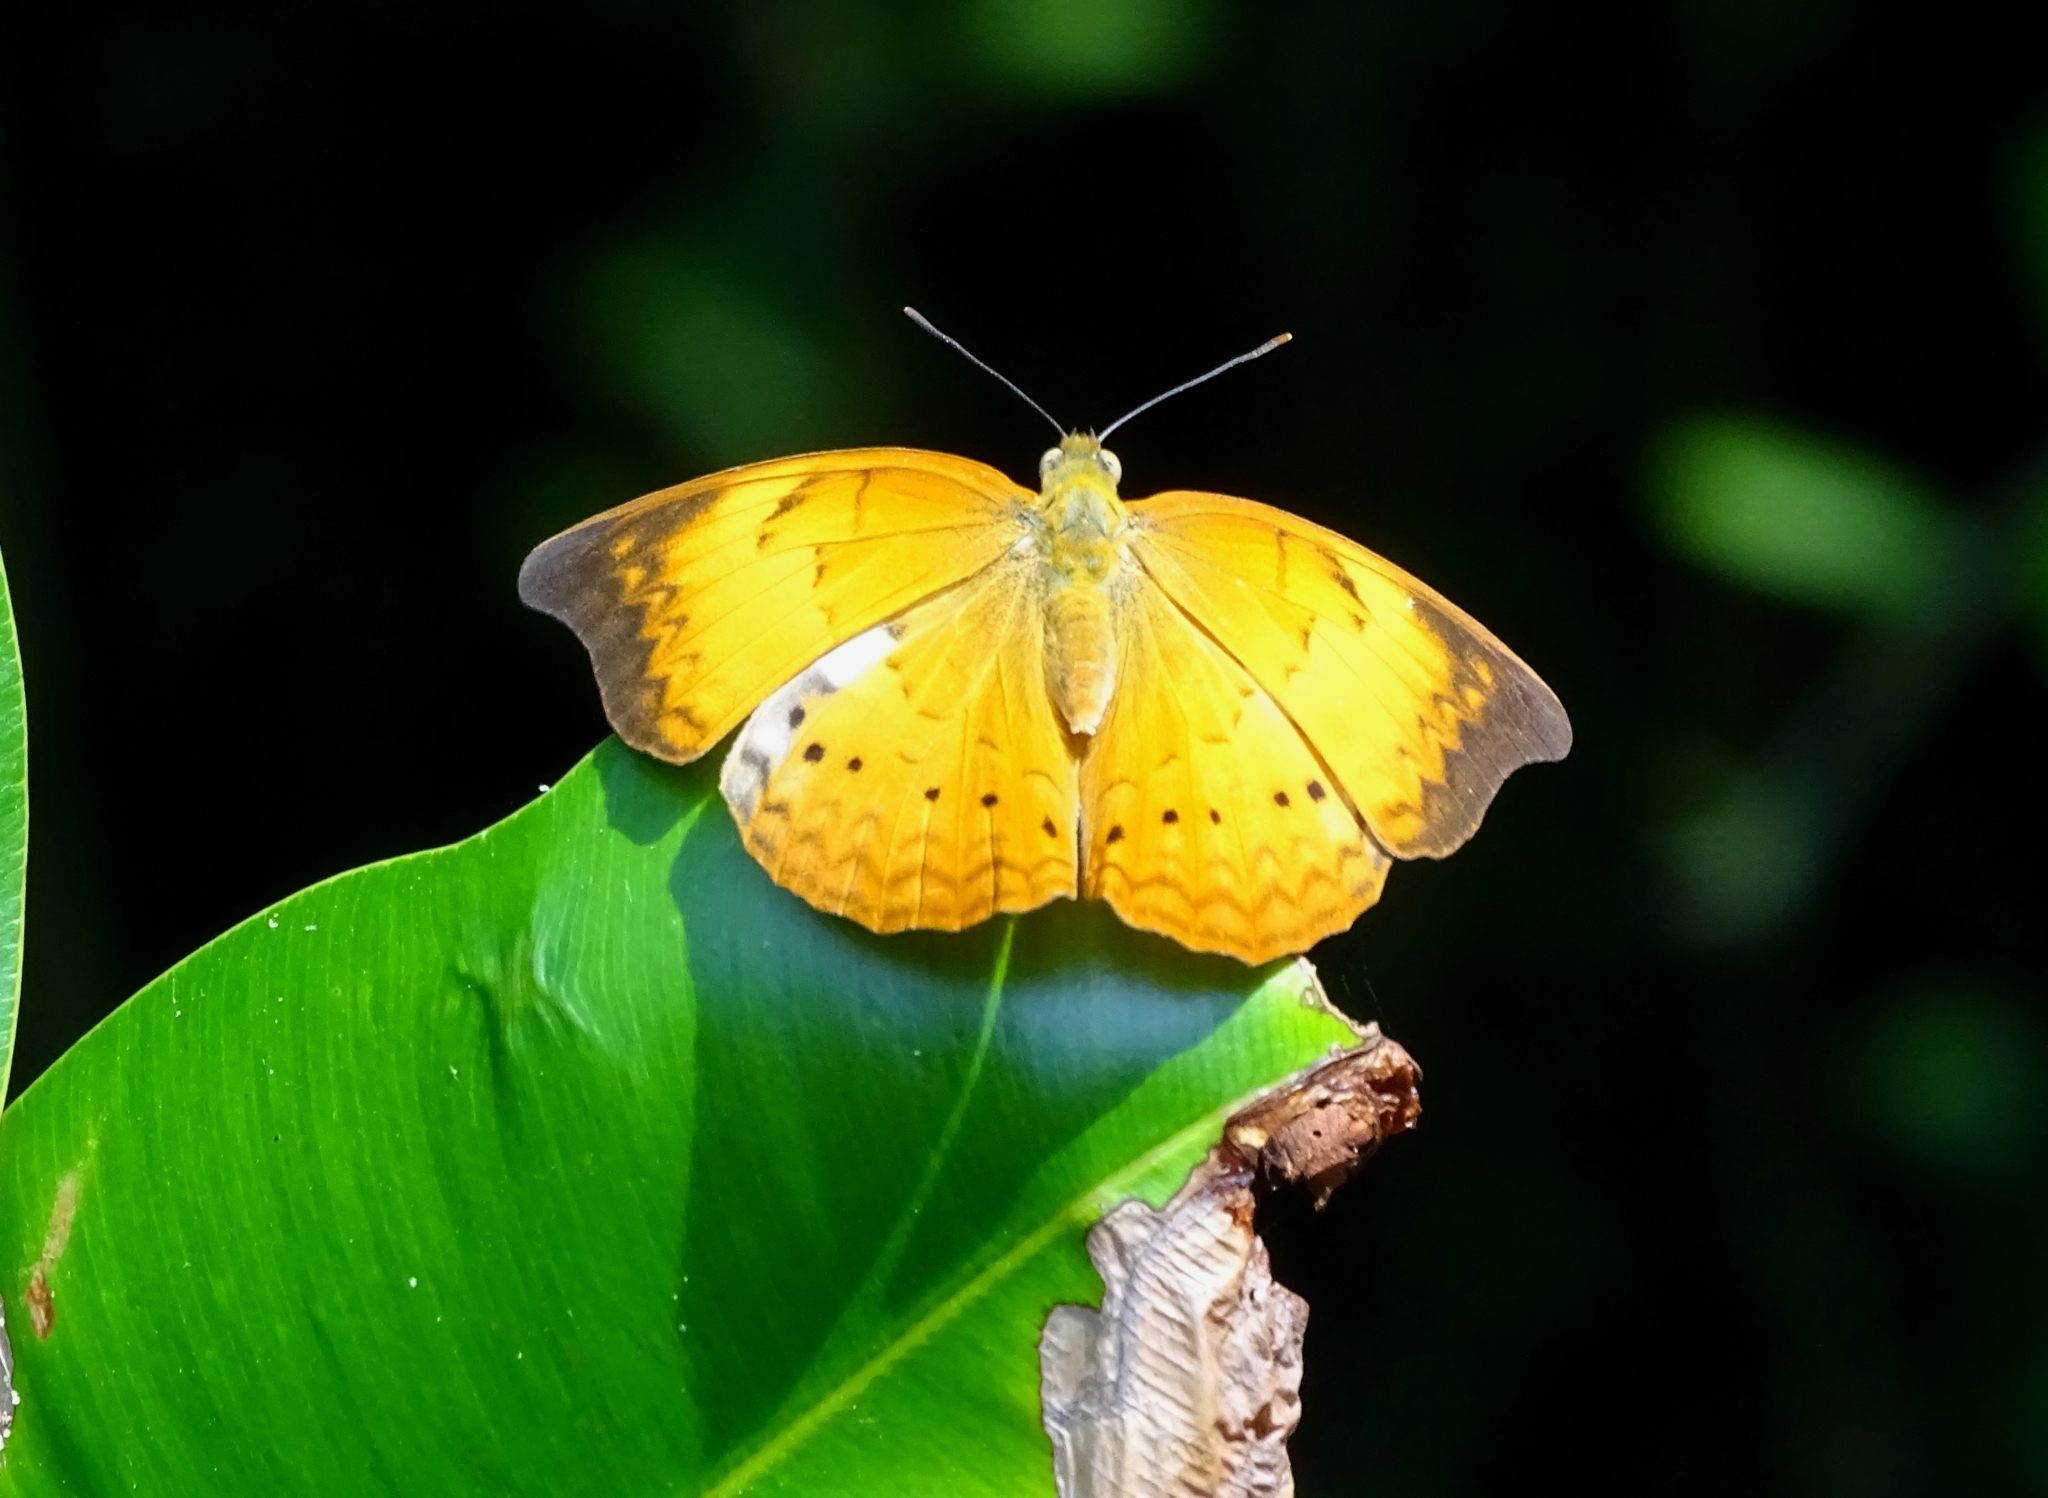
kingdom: Animalia
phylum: Arthropoda
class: Insecta
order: Lepidoptera
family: Nymphalidae
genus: Cirrochroa
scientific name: Cirrochroa thais
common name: Tamil yeoman
